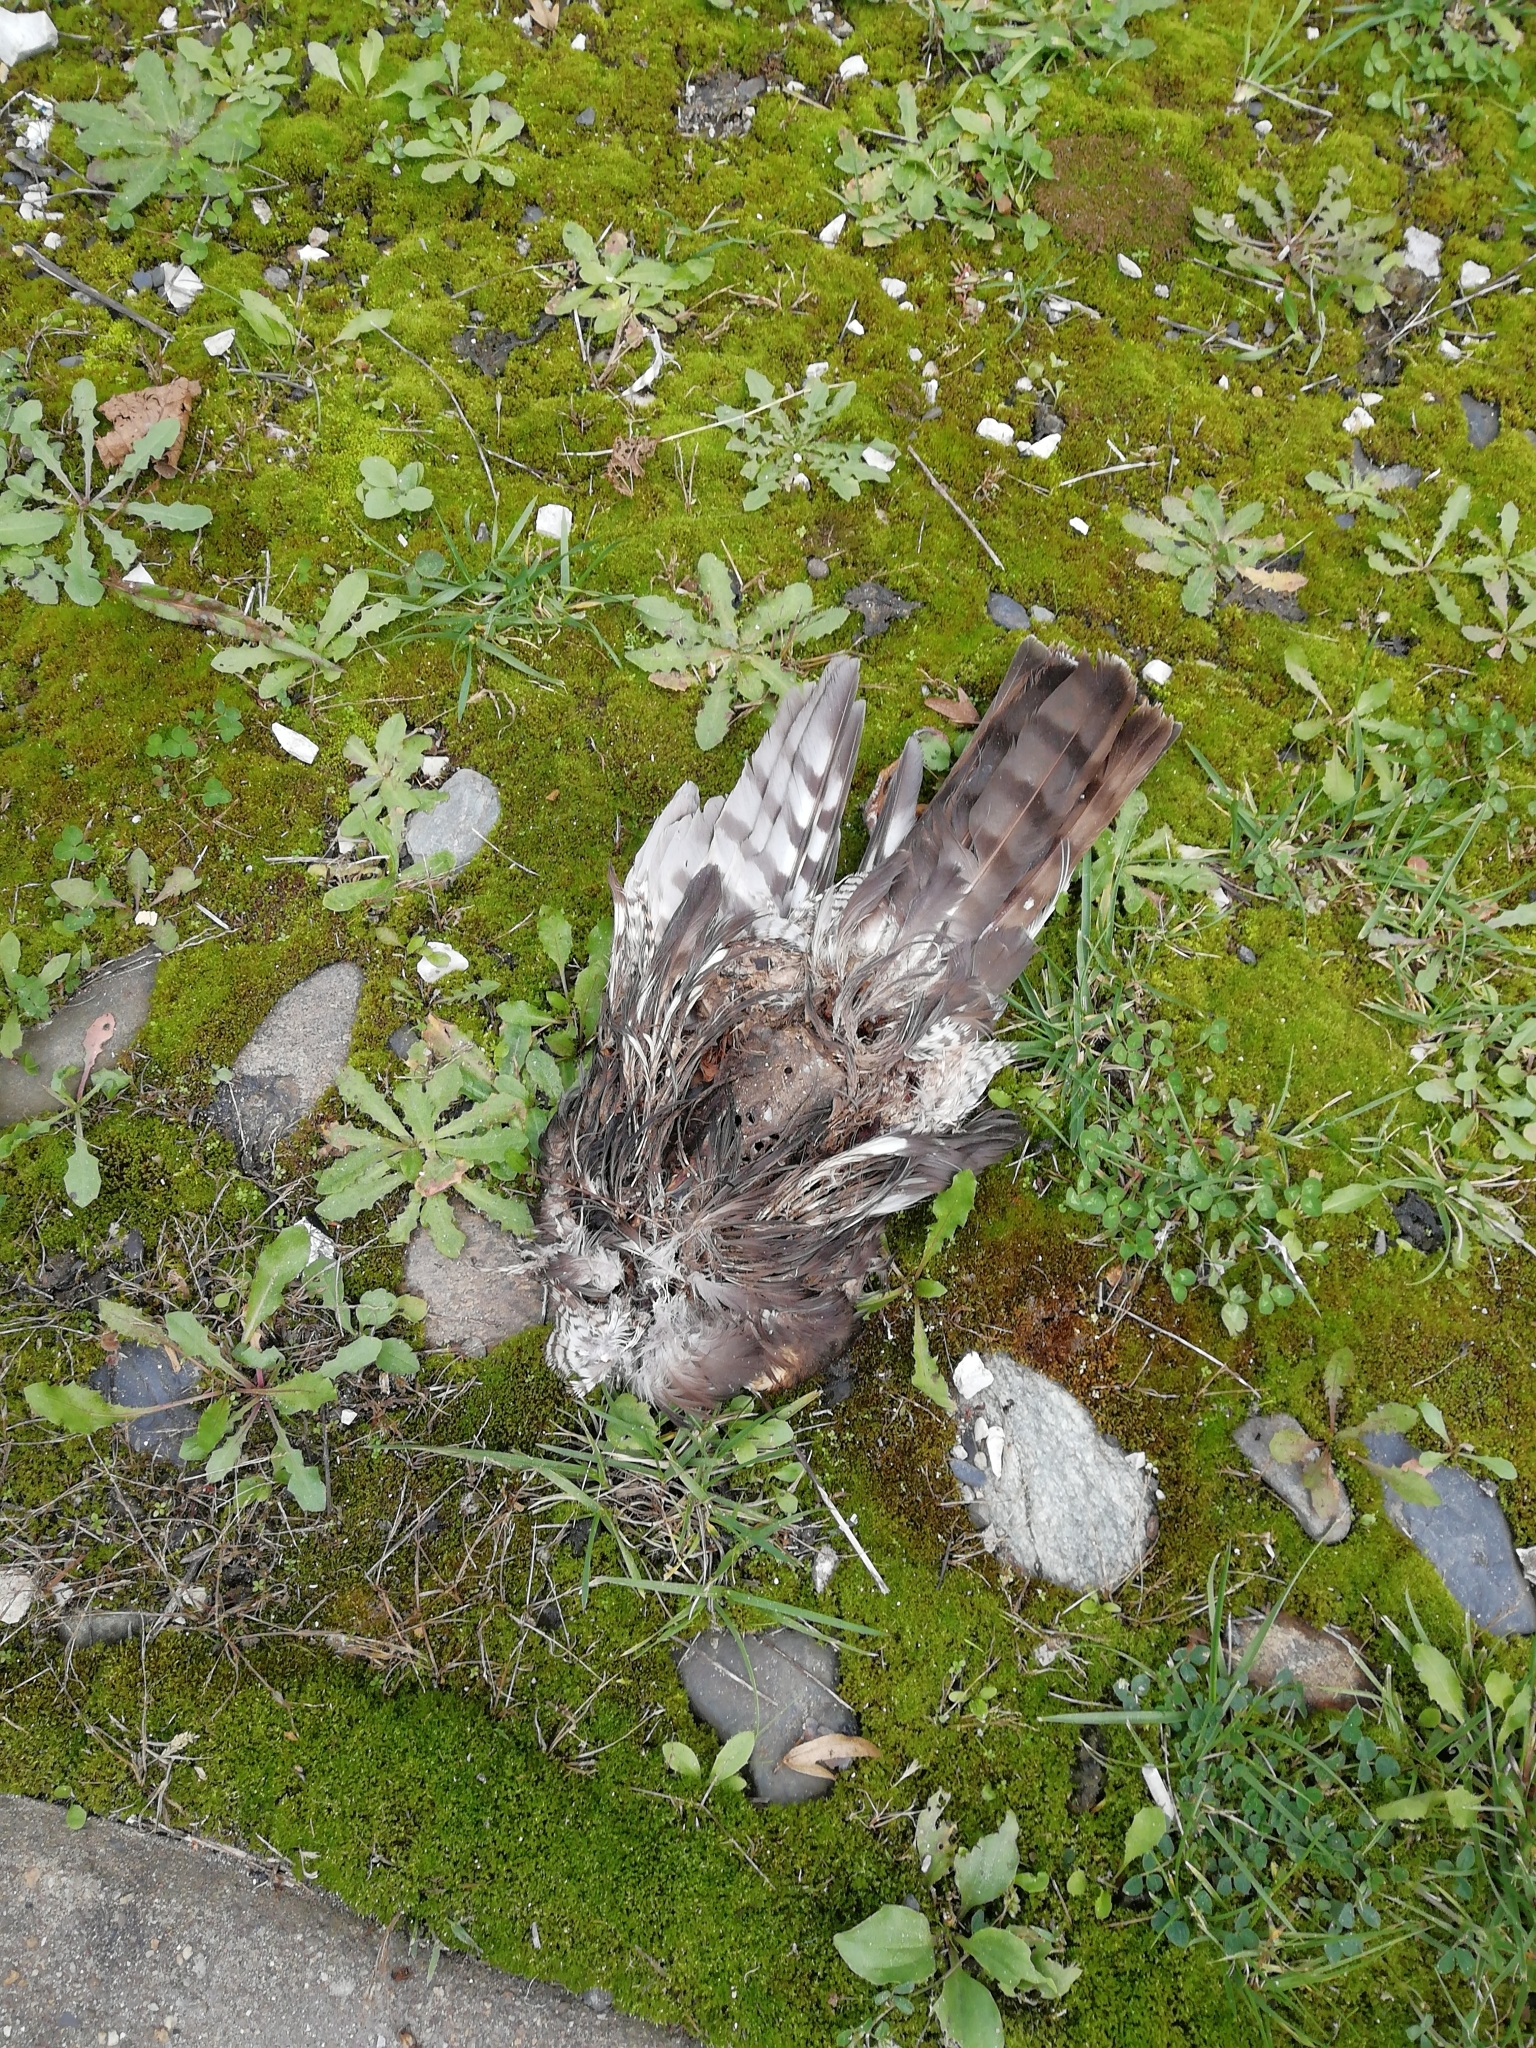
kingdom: Animalia
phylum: Chordata
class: Aves
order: Accipitriformes
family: Accipitridae
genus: Accipiter
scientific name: Accipiter nisus
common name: Eurasian sparrowhawk
